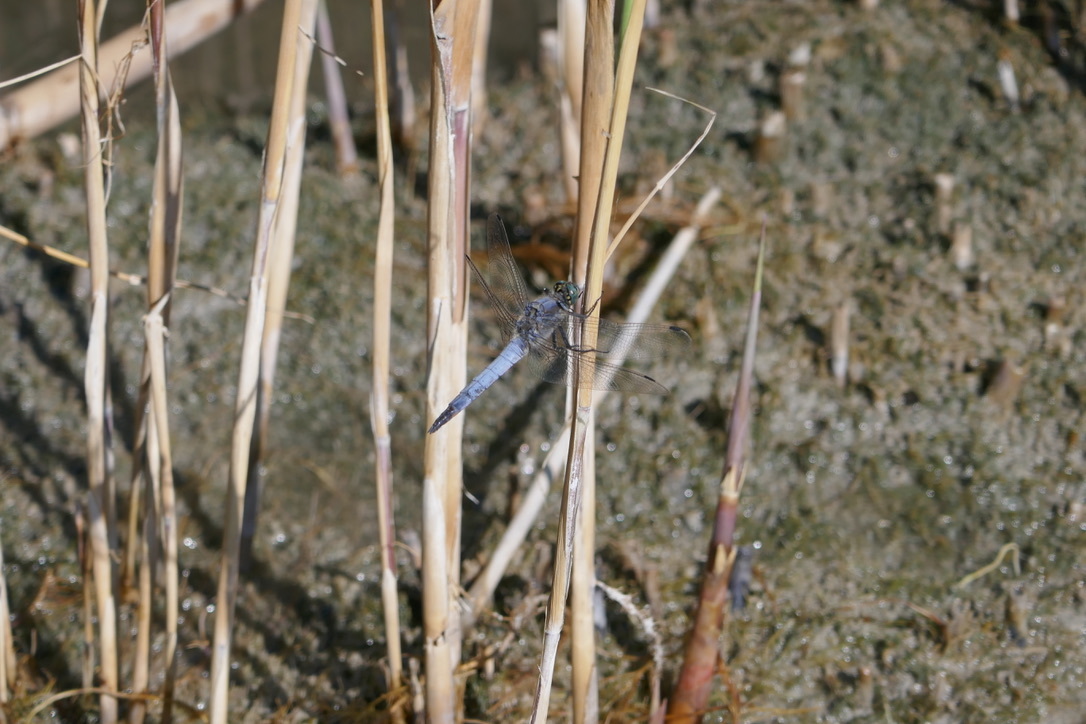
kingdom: Animalia
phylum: Arthropoda
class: Insecta
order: Odonata
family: Libellulidae
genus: Orthetrum
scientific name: Orthetrum cancellatum
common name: Black-tailed skimmer
